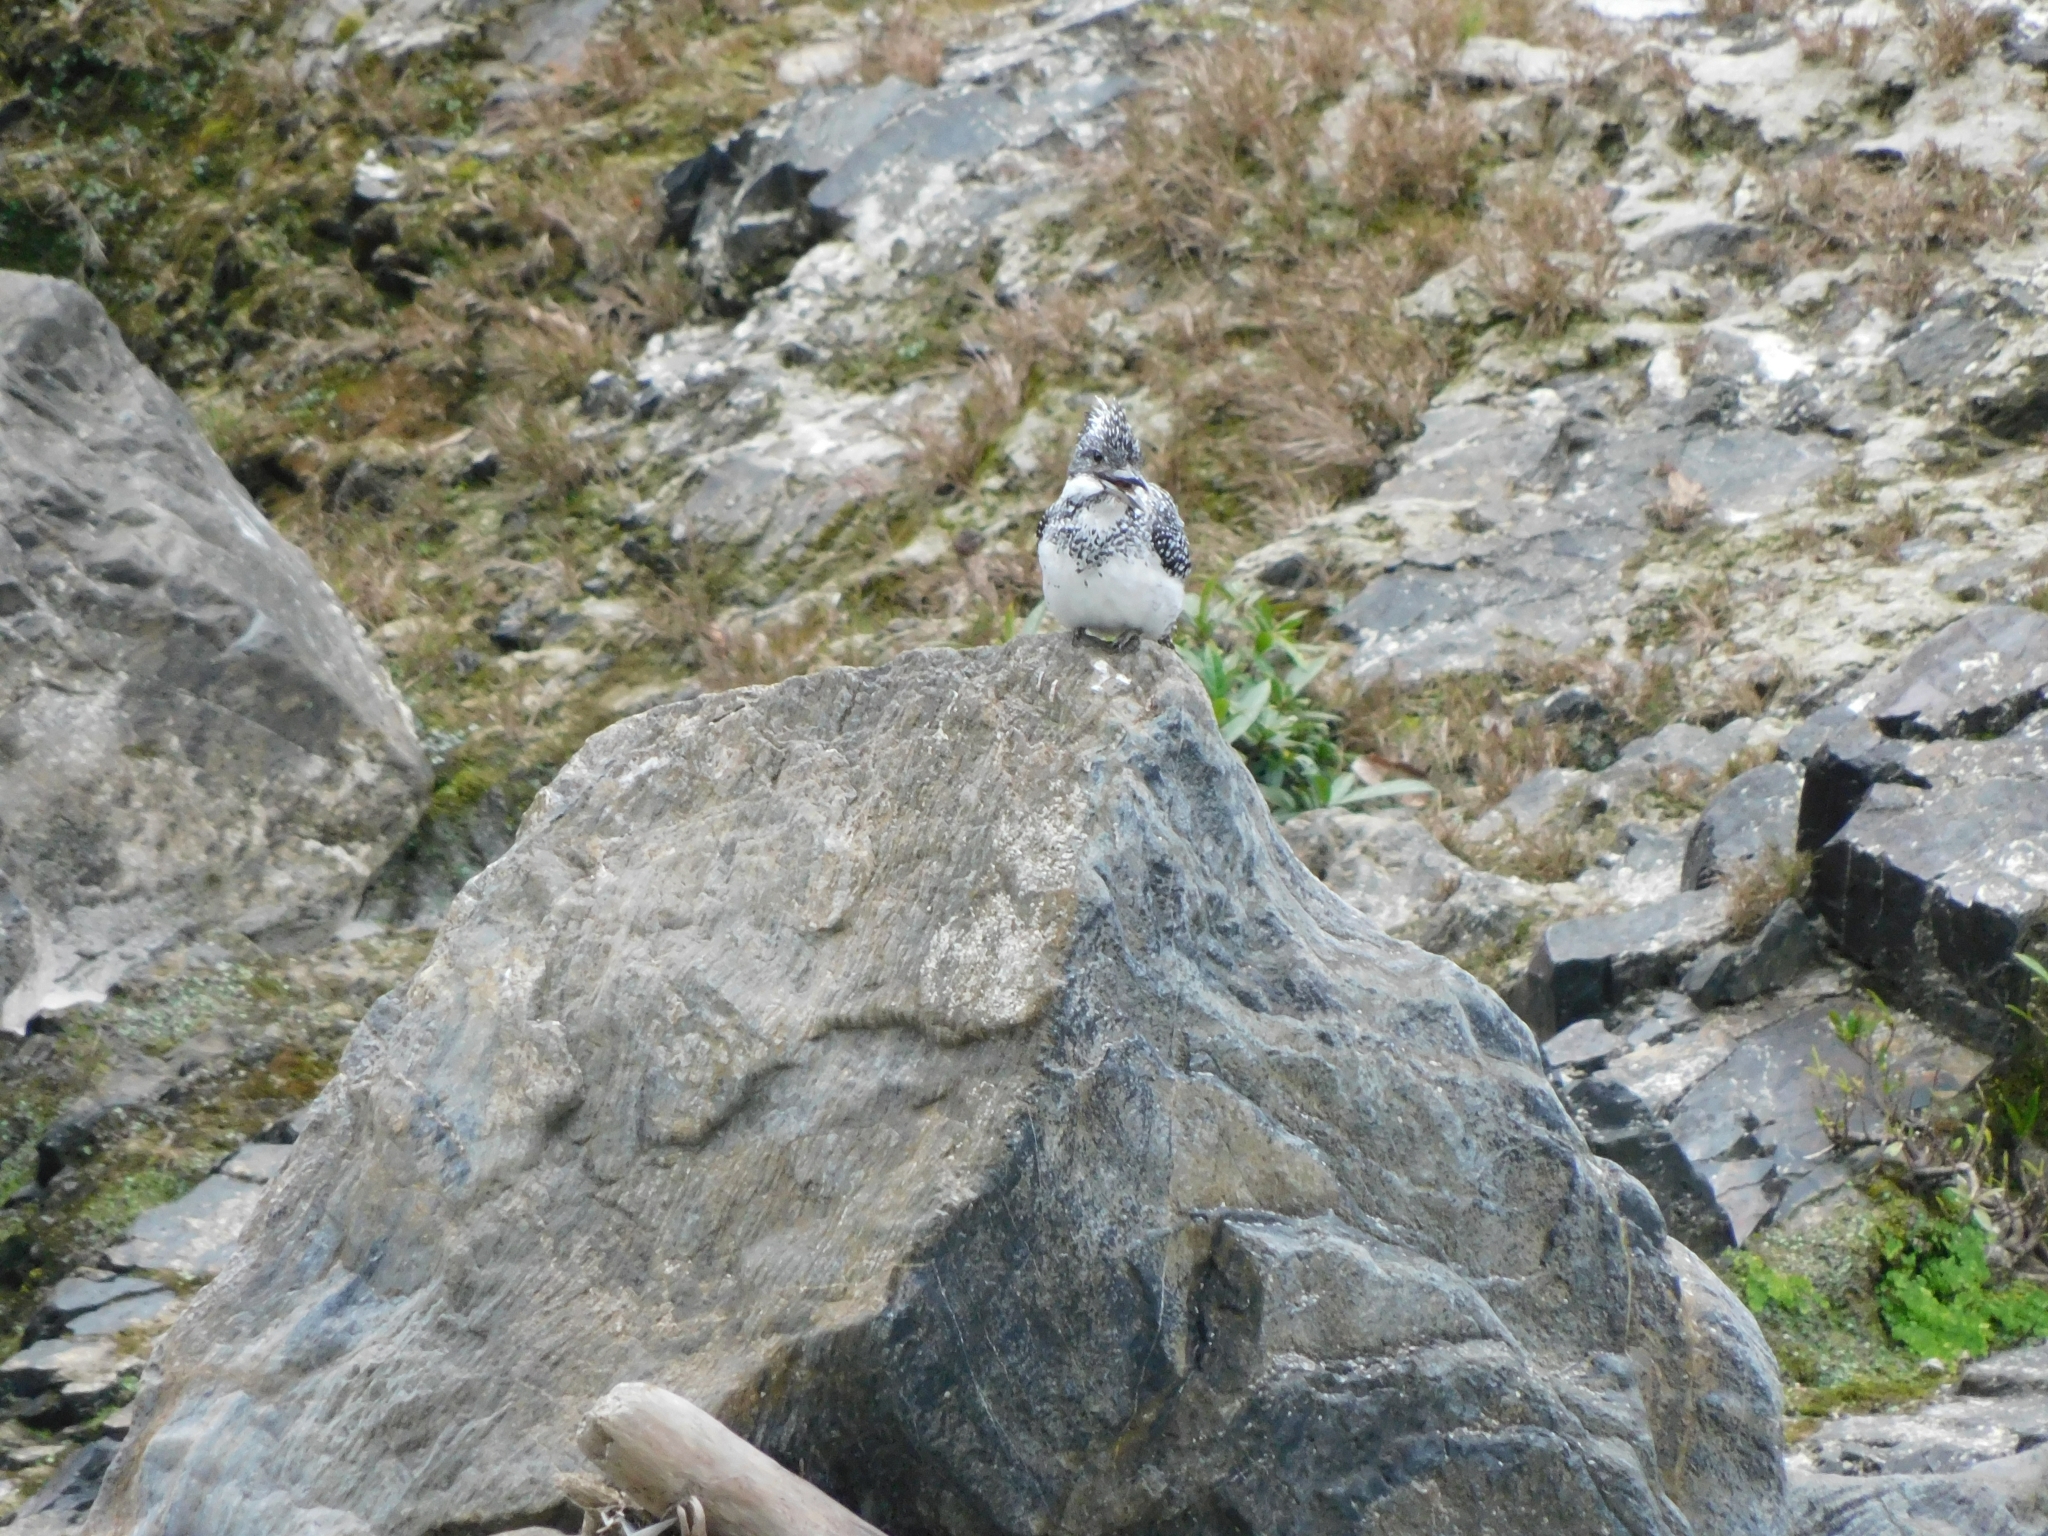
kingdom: Animalia
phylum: Chordata
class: Aves
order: Coraciiformes
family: Alcedinidae
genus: Megaceryle
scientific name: Megaceryle lugubris
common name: Crested kingfisher
